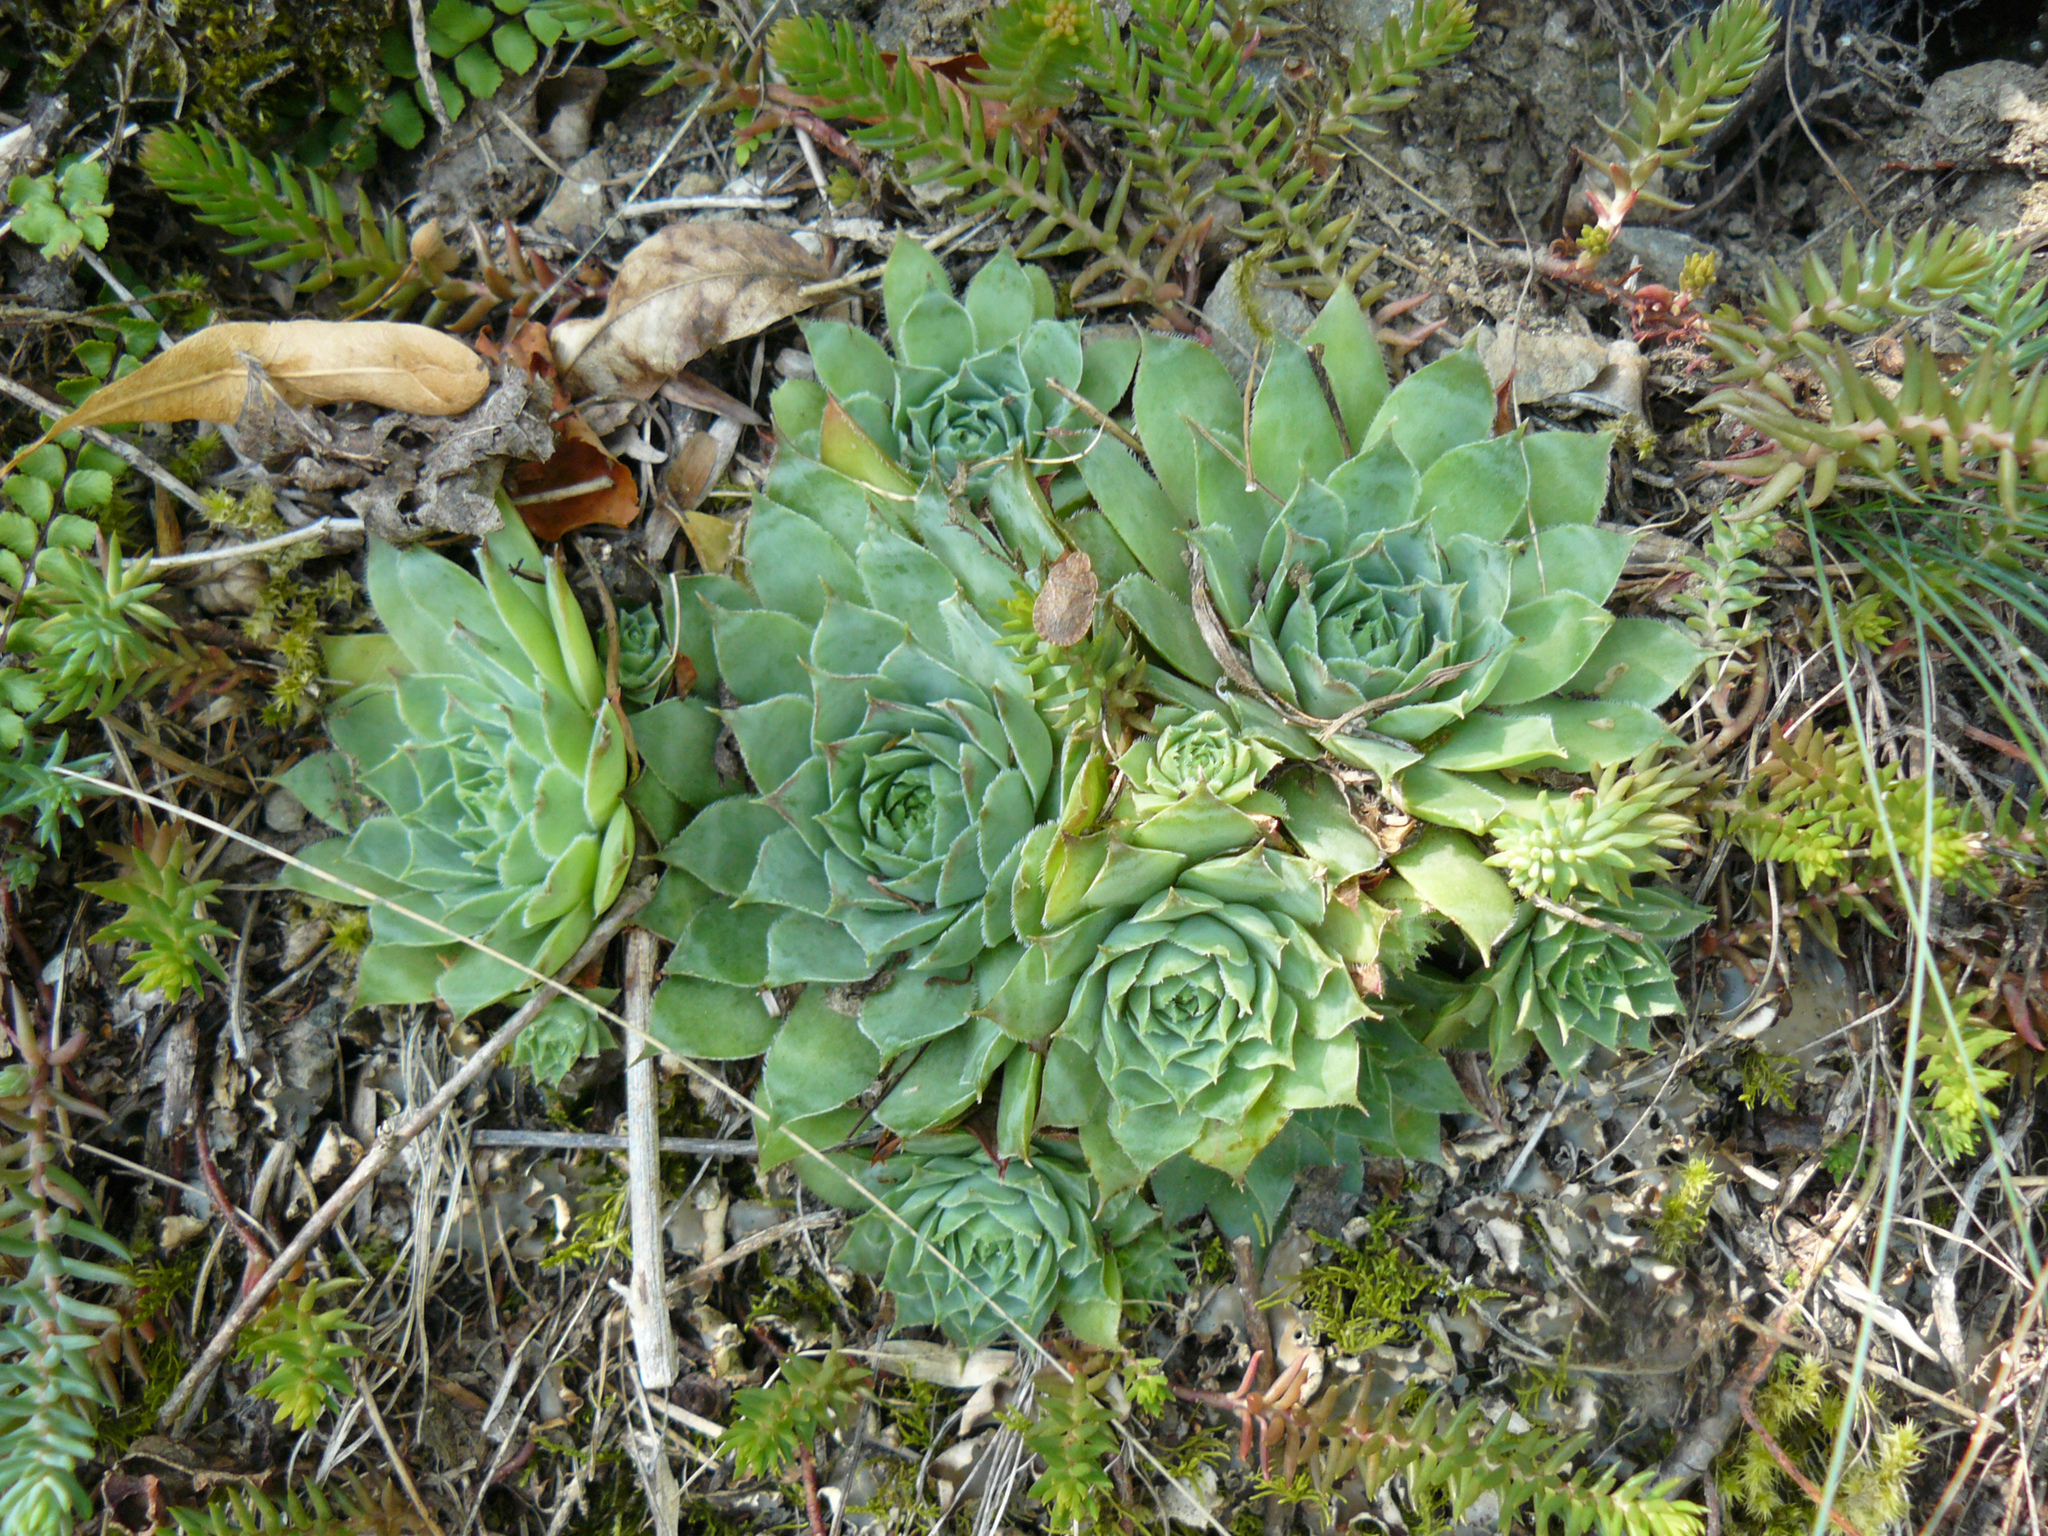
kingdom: Plantae
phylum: Tracheophyta
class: Magnoliopsida
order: Saxifragales
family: Crassulaceae
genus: Sempervivum
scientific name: Sempervivum tectorum
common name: House-leek
